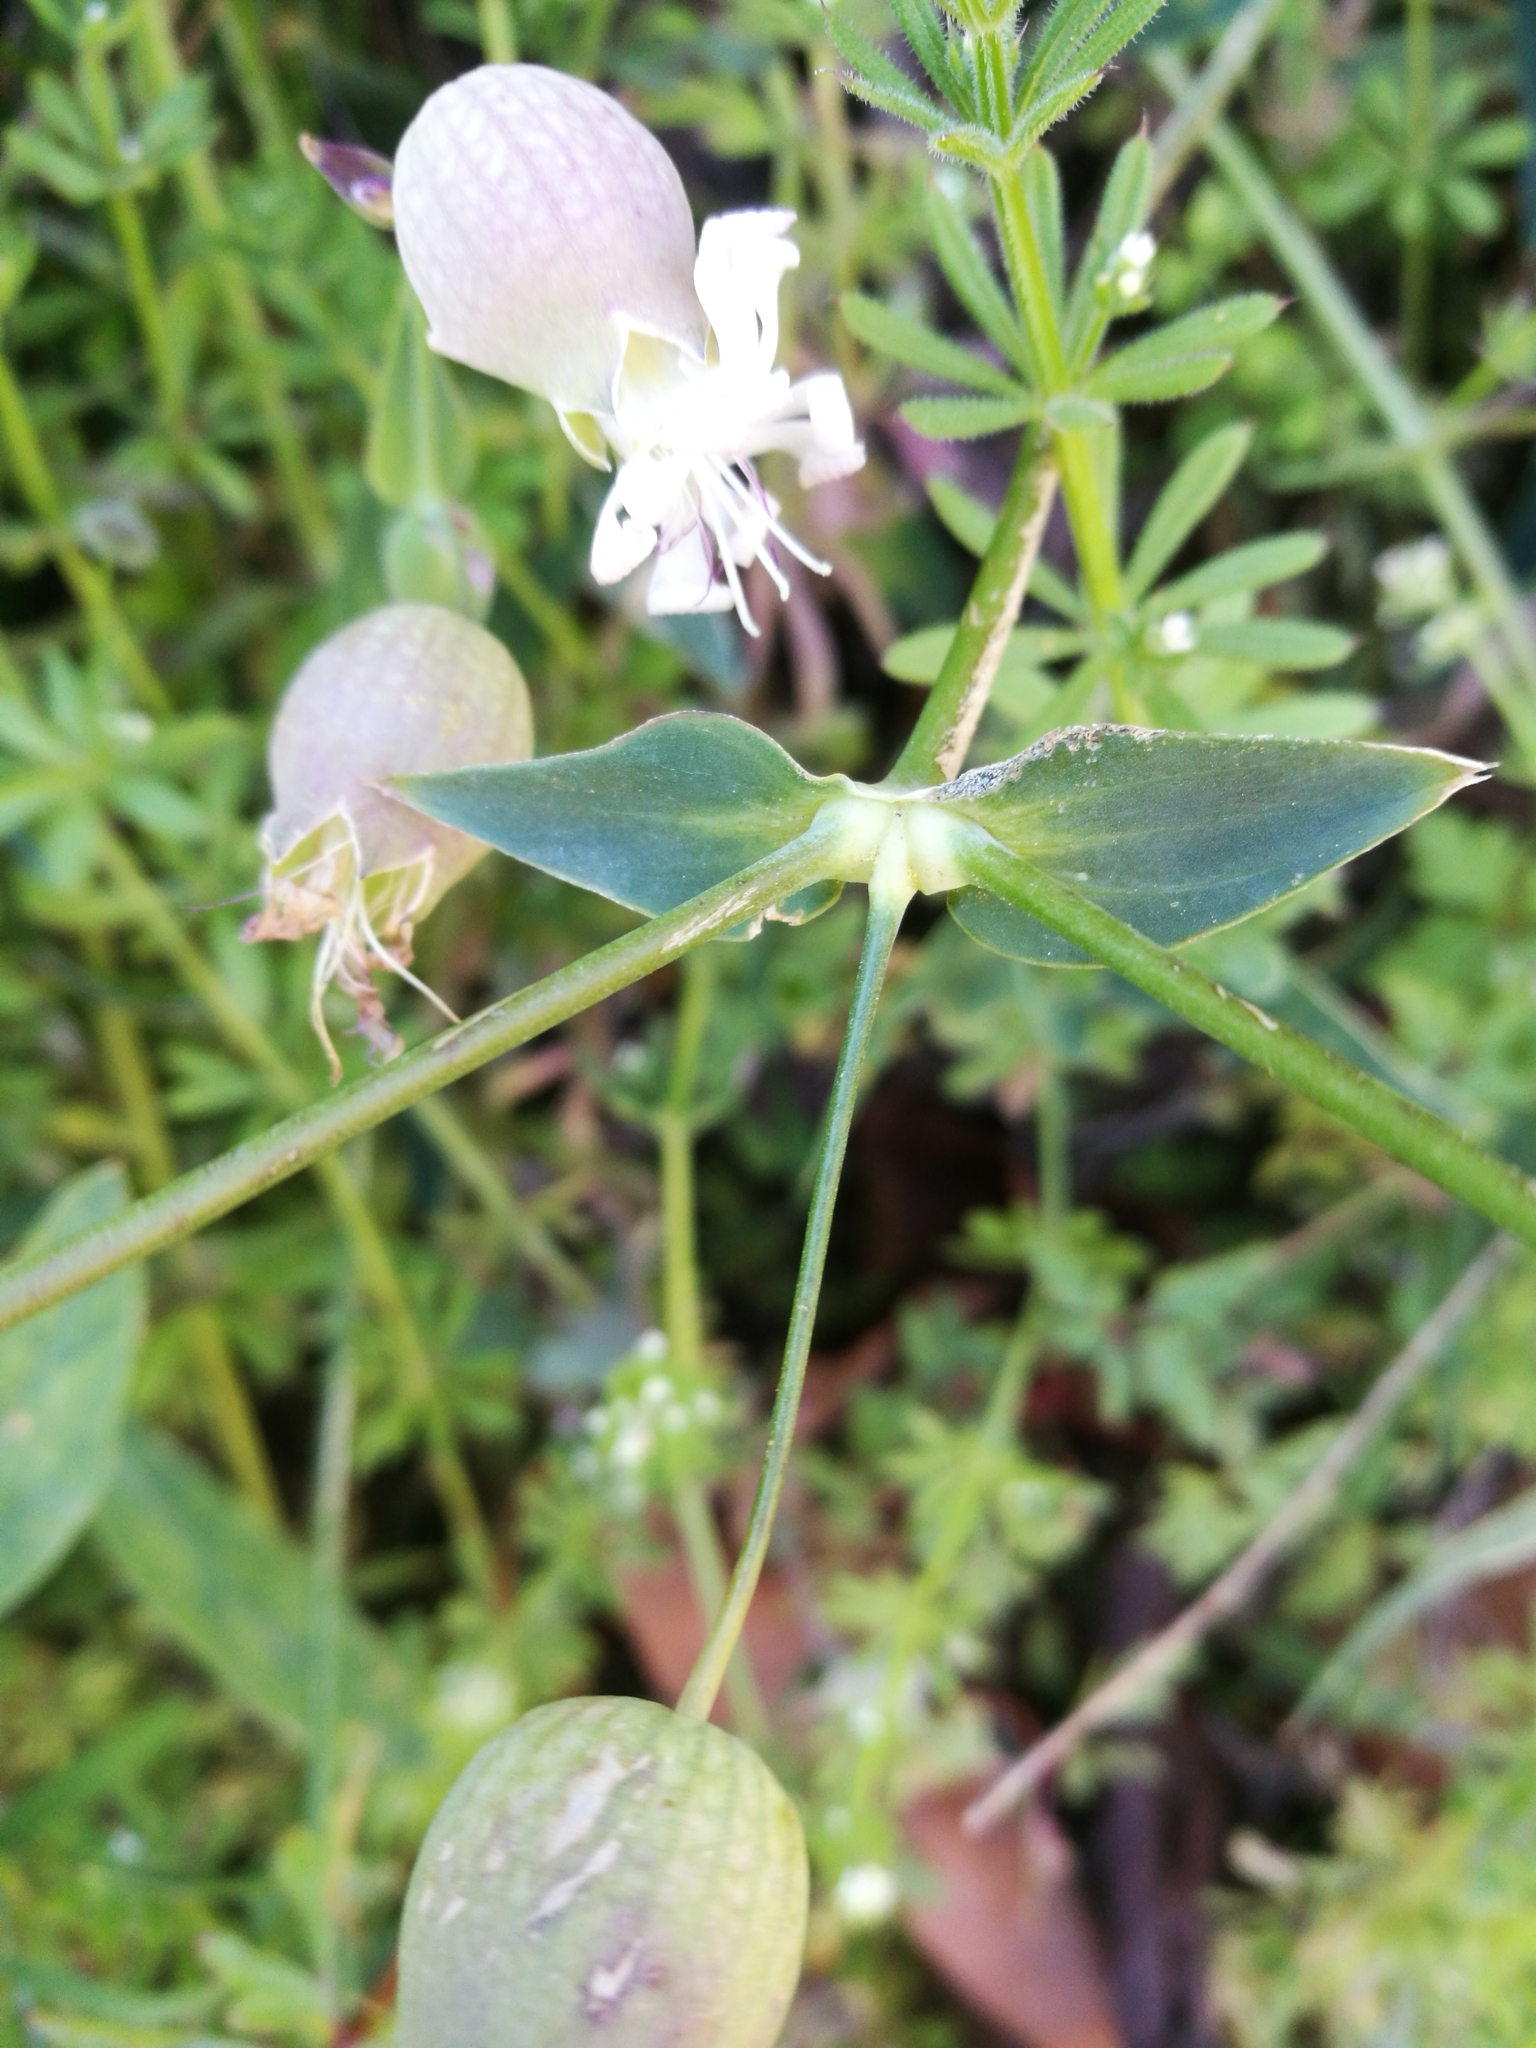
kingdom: Plantae
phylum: Tracheophyta
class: Magnoliopsida
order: Caryophyllales
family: Caryophyllaceae
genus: Silene
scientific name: Silene vulgaris
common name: Bladder campion
